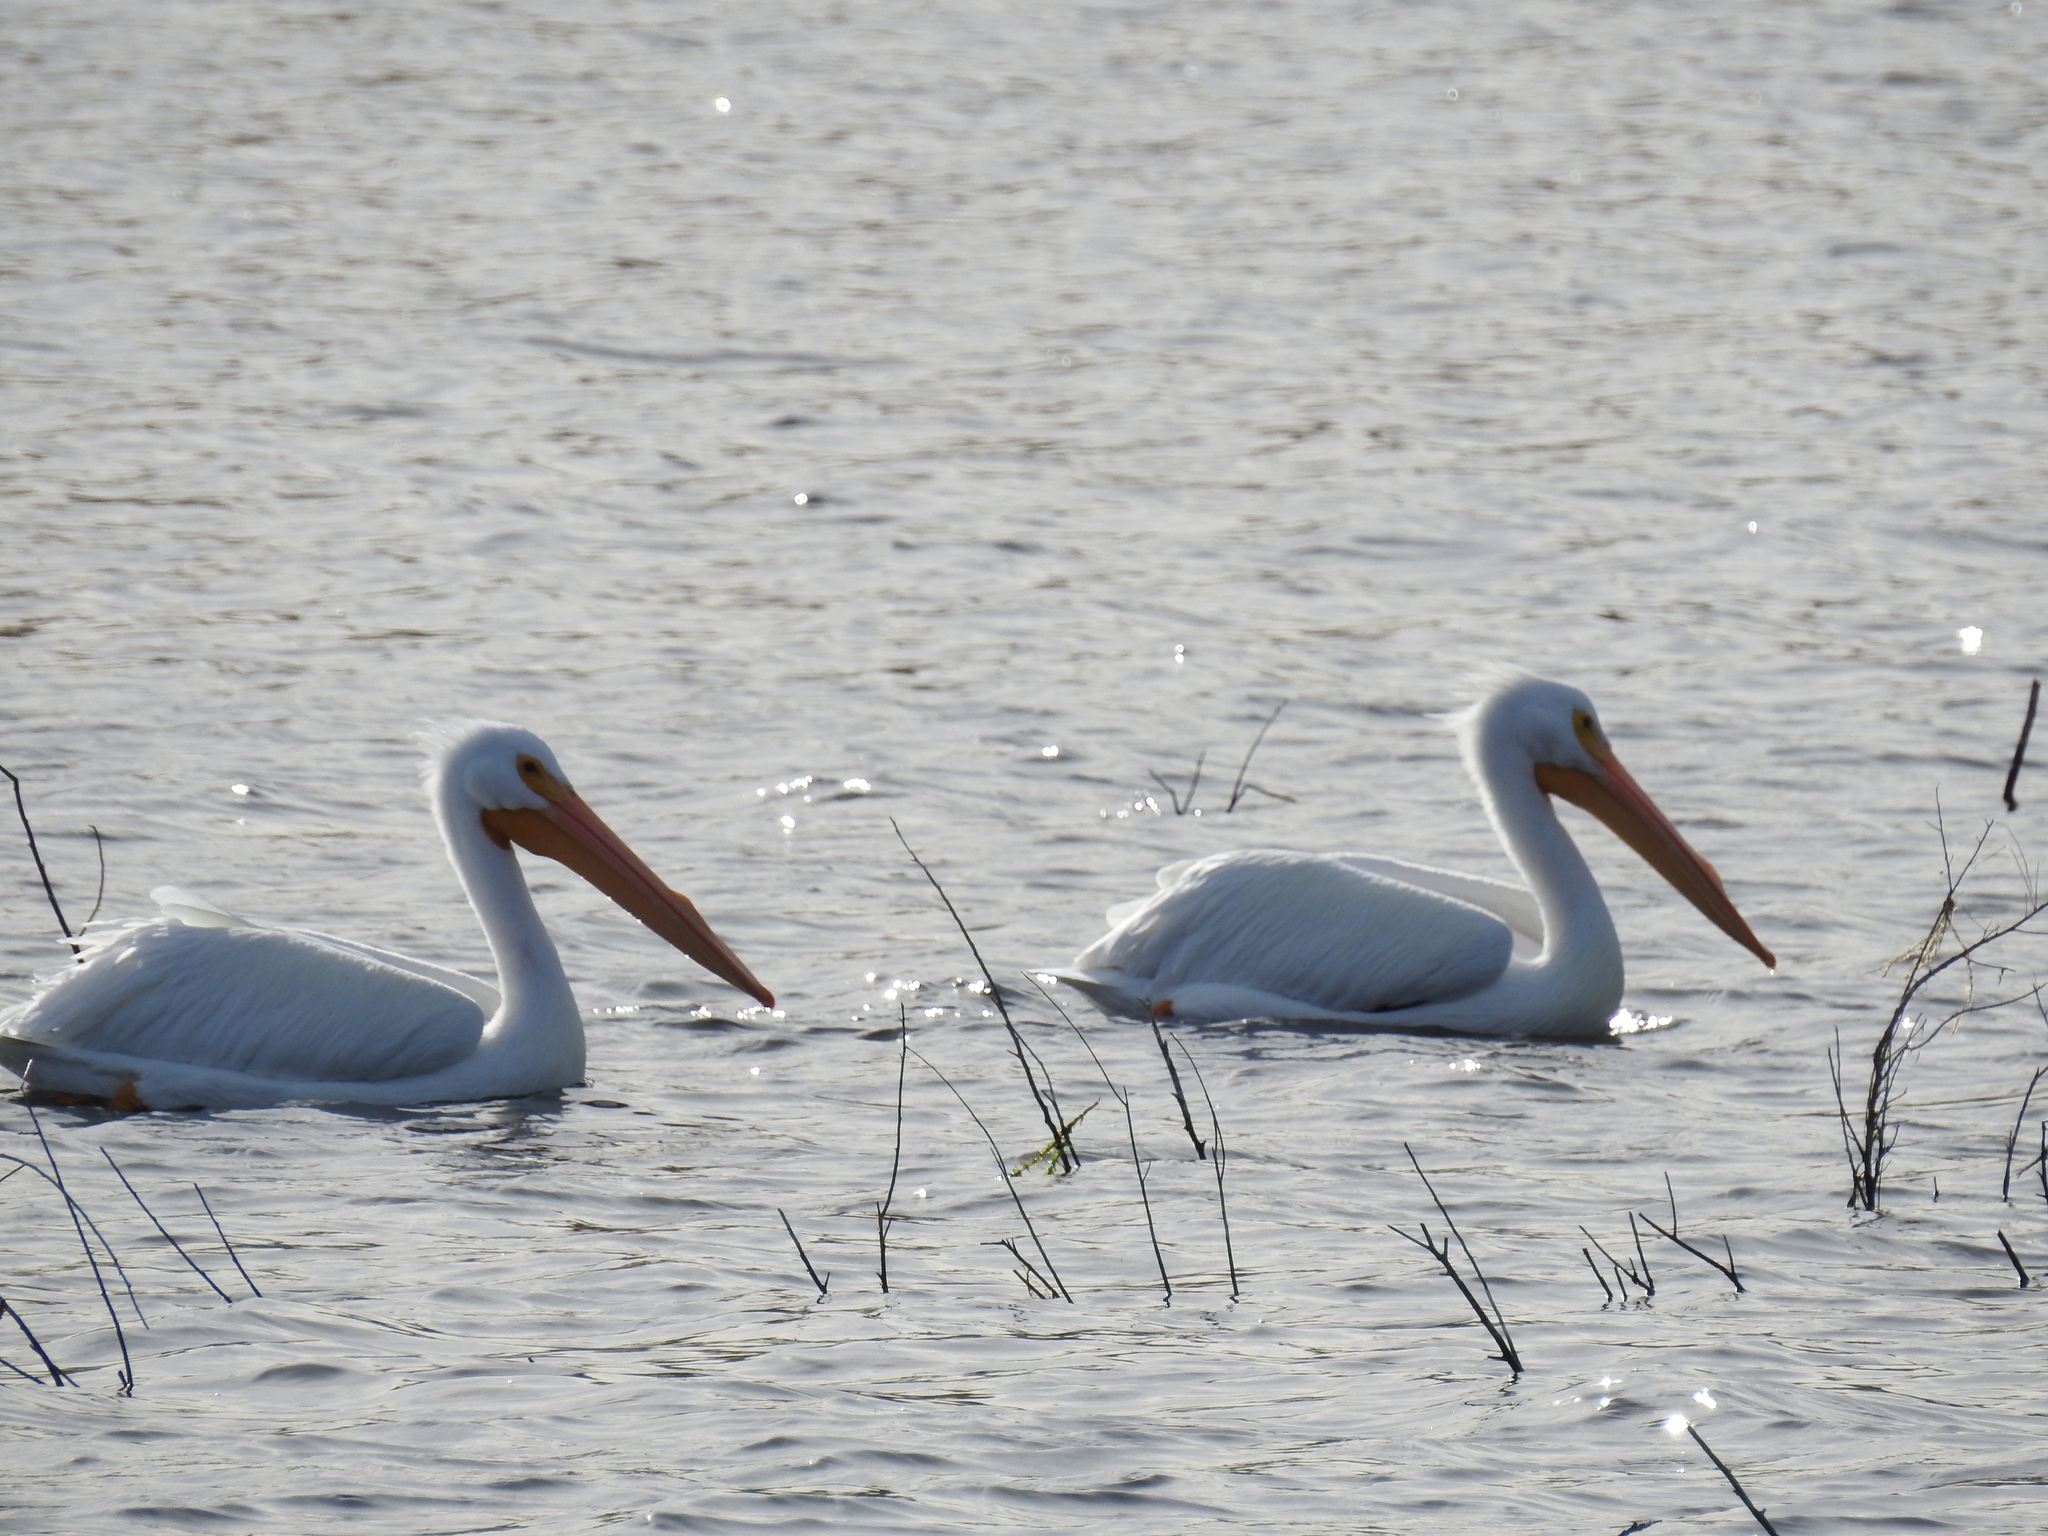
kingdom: Animalia
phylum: Chordata
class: Aves
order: Pelecaniformes
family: Pelecanidae
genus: Pelecanus
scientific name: Pelecanus erythrorhynchos
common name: American white pelican
